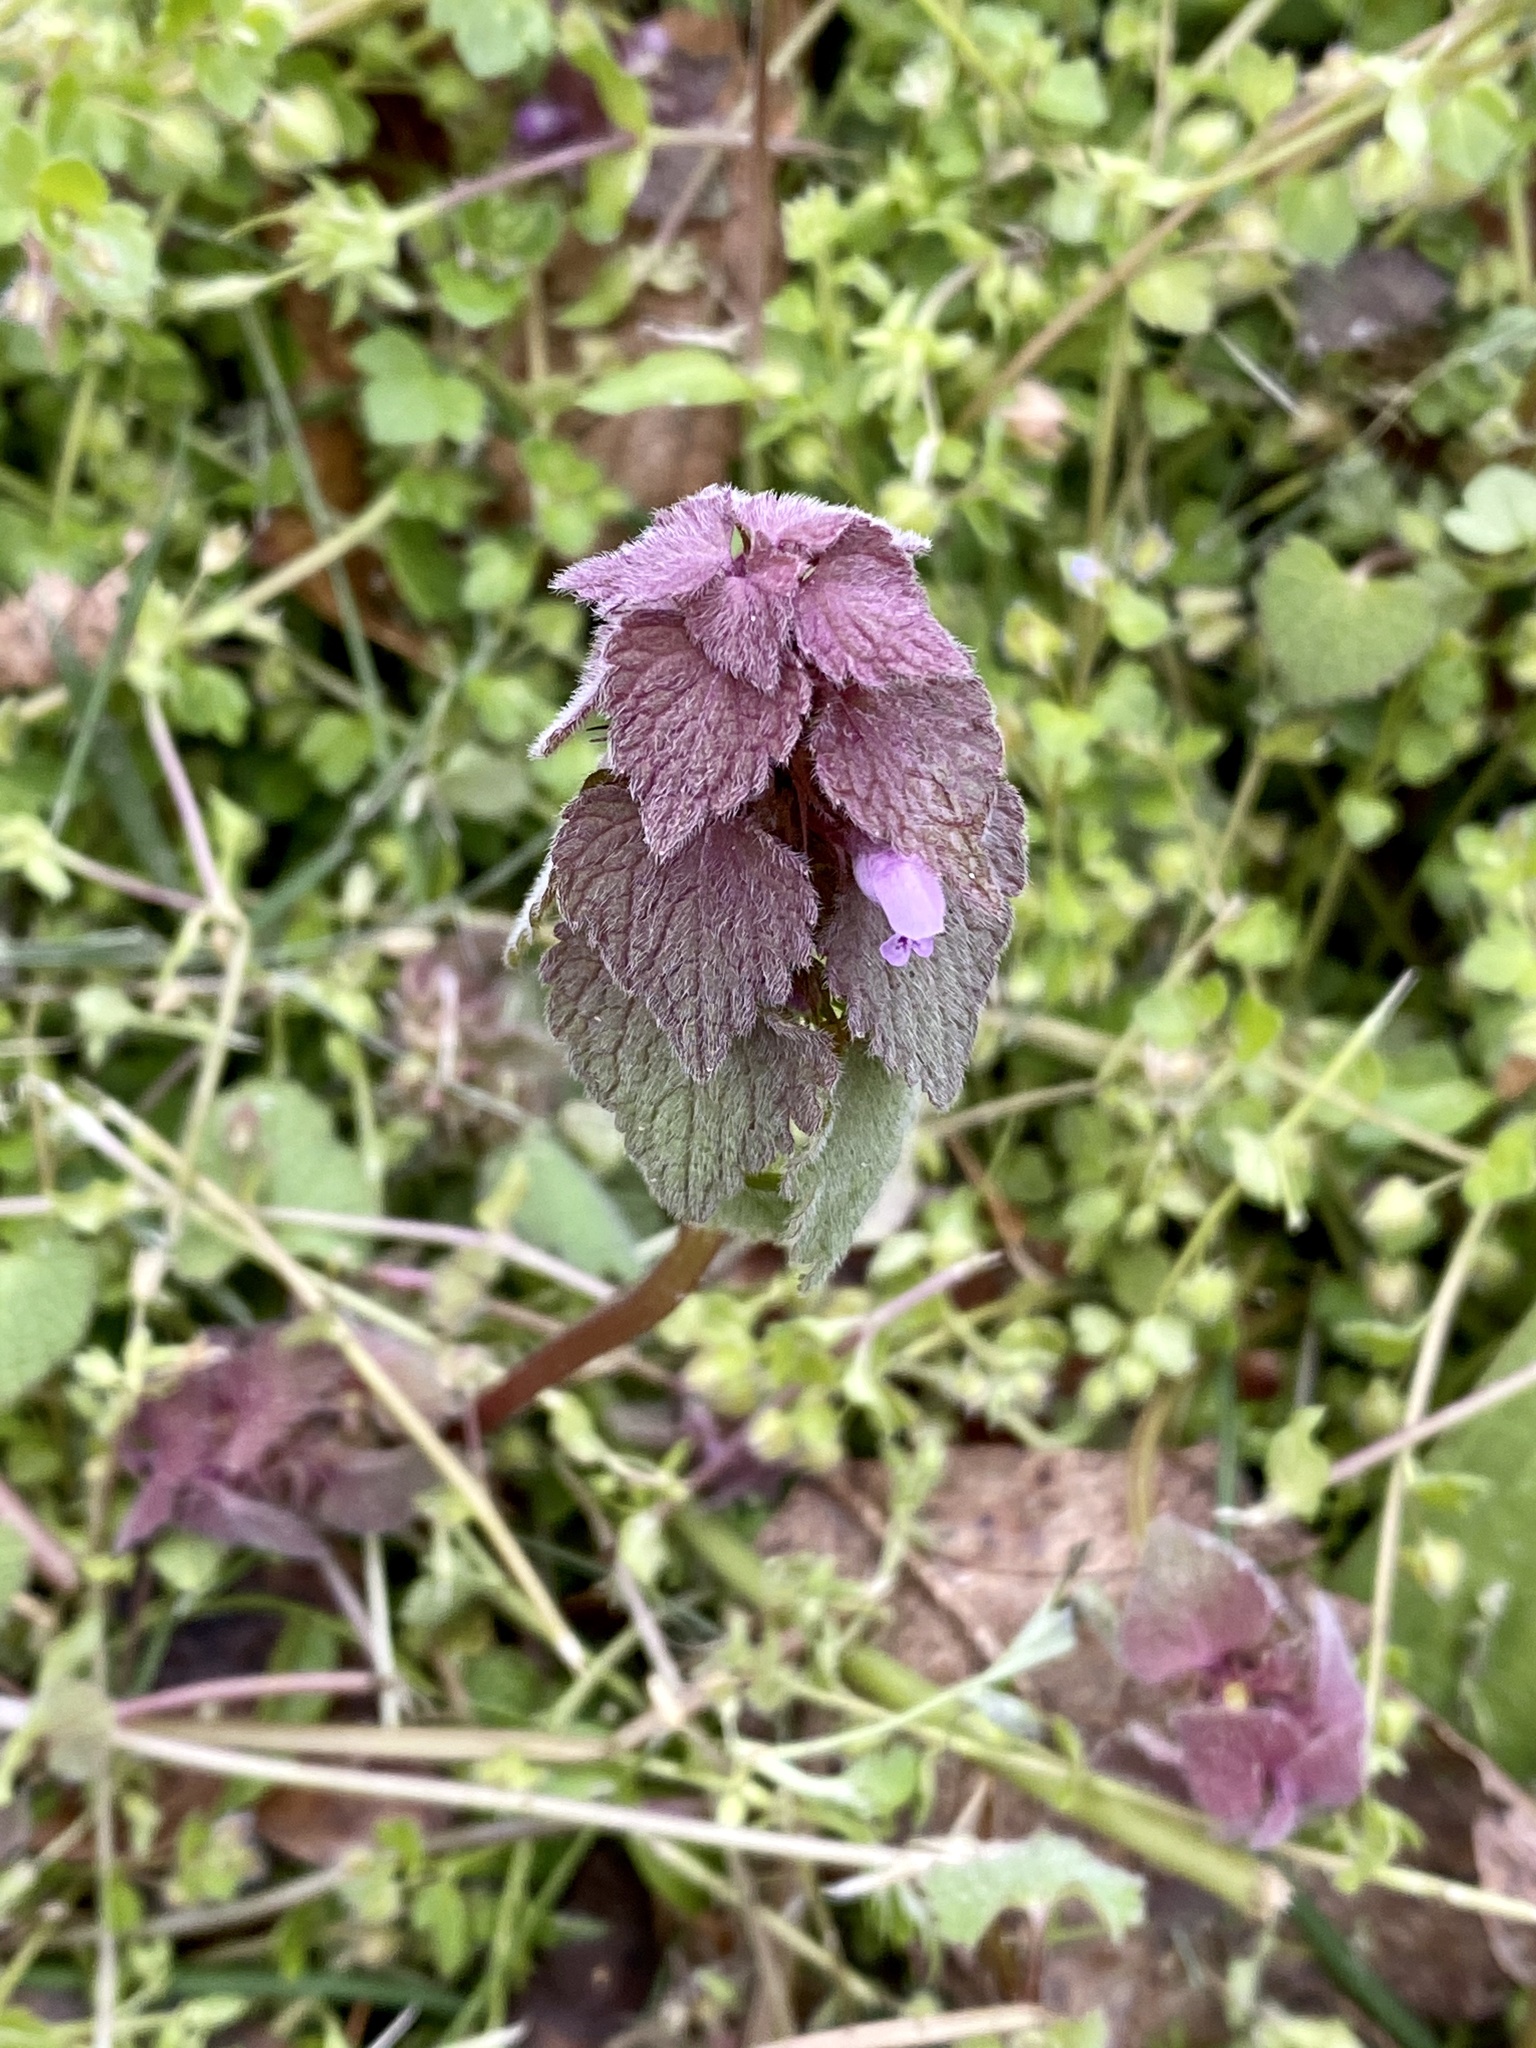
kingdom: Plantae
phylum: Tracheophyta
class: Magnoliopsida
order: Lamiales
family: Lamiaceae
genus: Lamium
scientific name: Lamium purpureum
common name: Red dead-nettle
